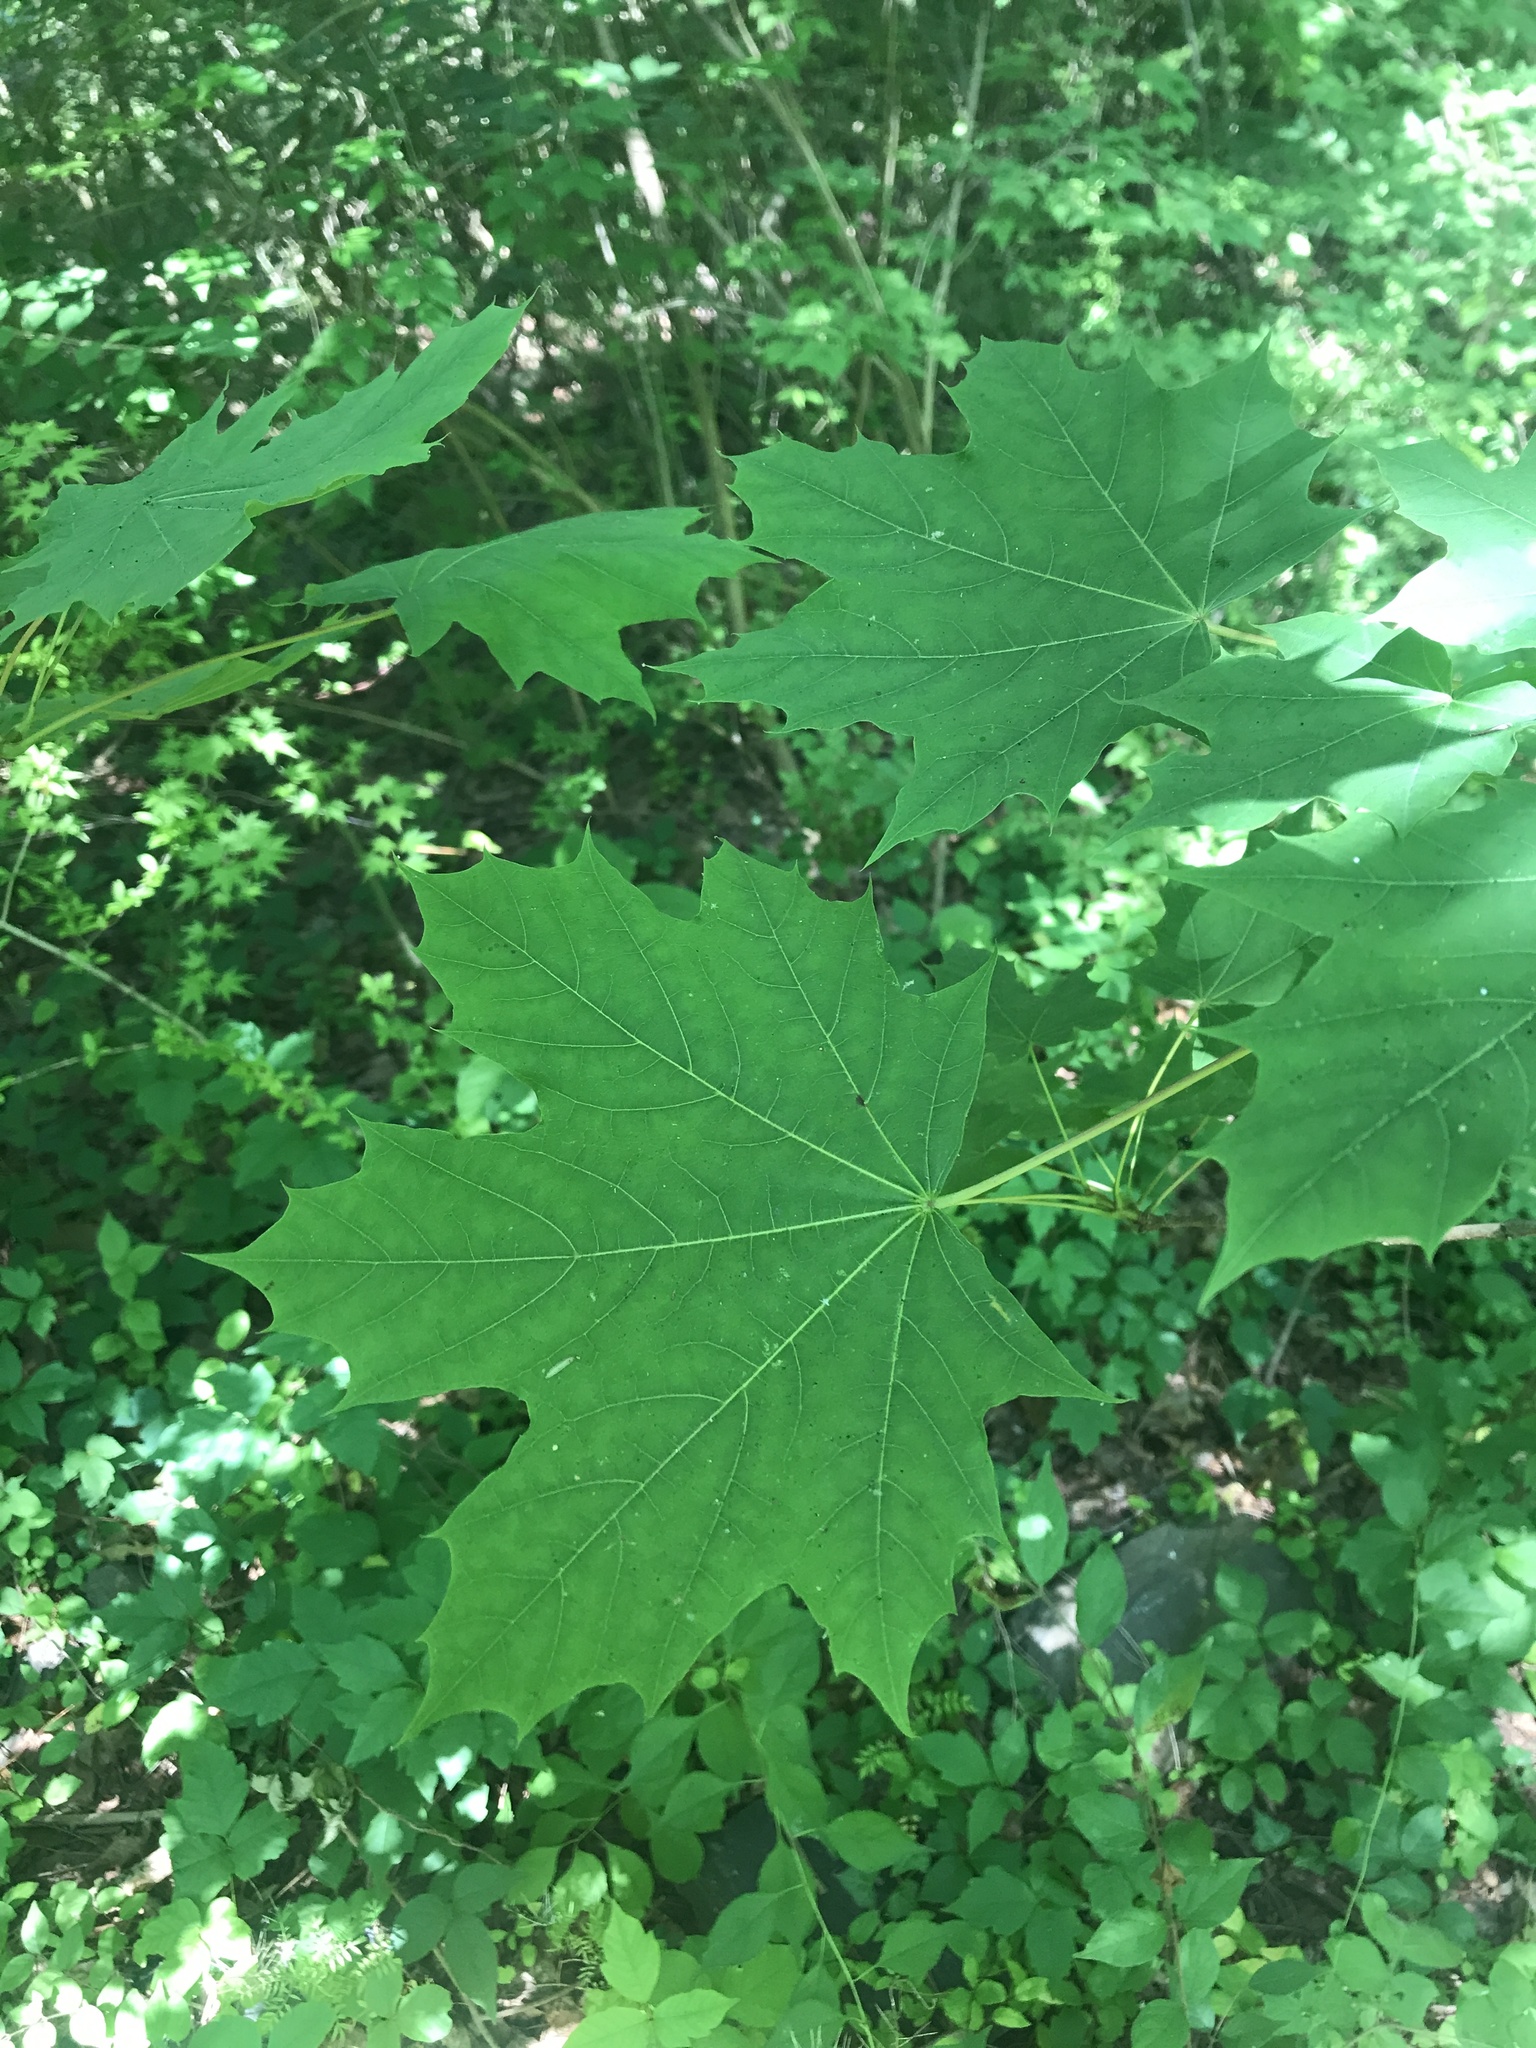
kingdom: Plantae
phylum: Tracheophyta
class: Magnoliopsida
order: Sapindales
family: Sapindaceae
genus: Acer
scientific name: Acer platanoides
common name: Norway maple
